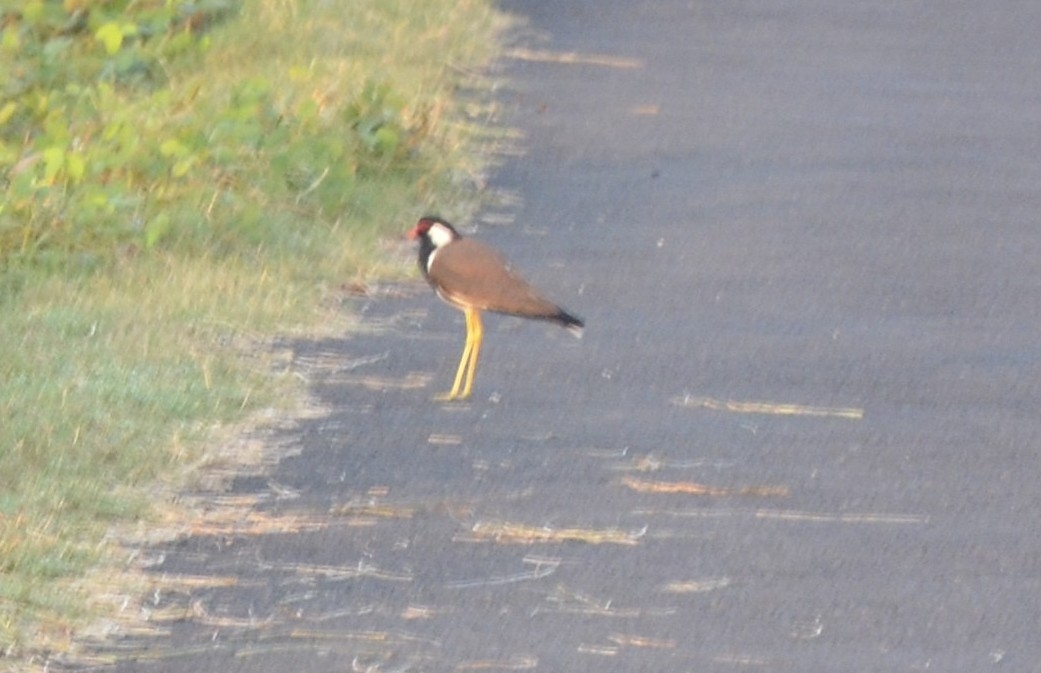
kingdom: Animalia
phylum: Chordata
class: Aves
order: Charadriiformes
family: Charadriidae
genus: Vanellus
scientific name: Vanellus indicus
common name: Red-wattled lapwing
